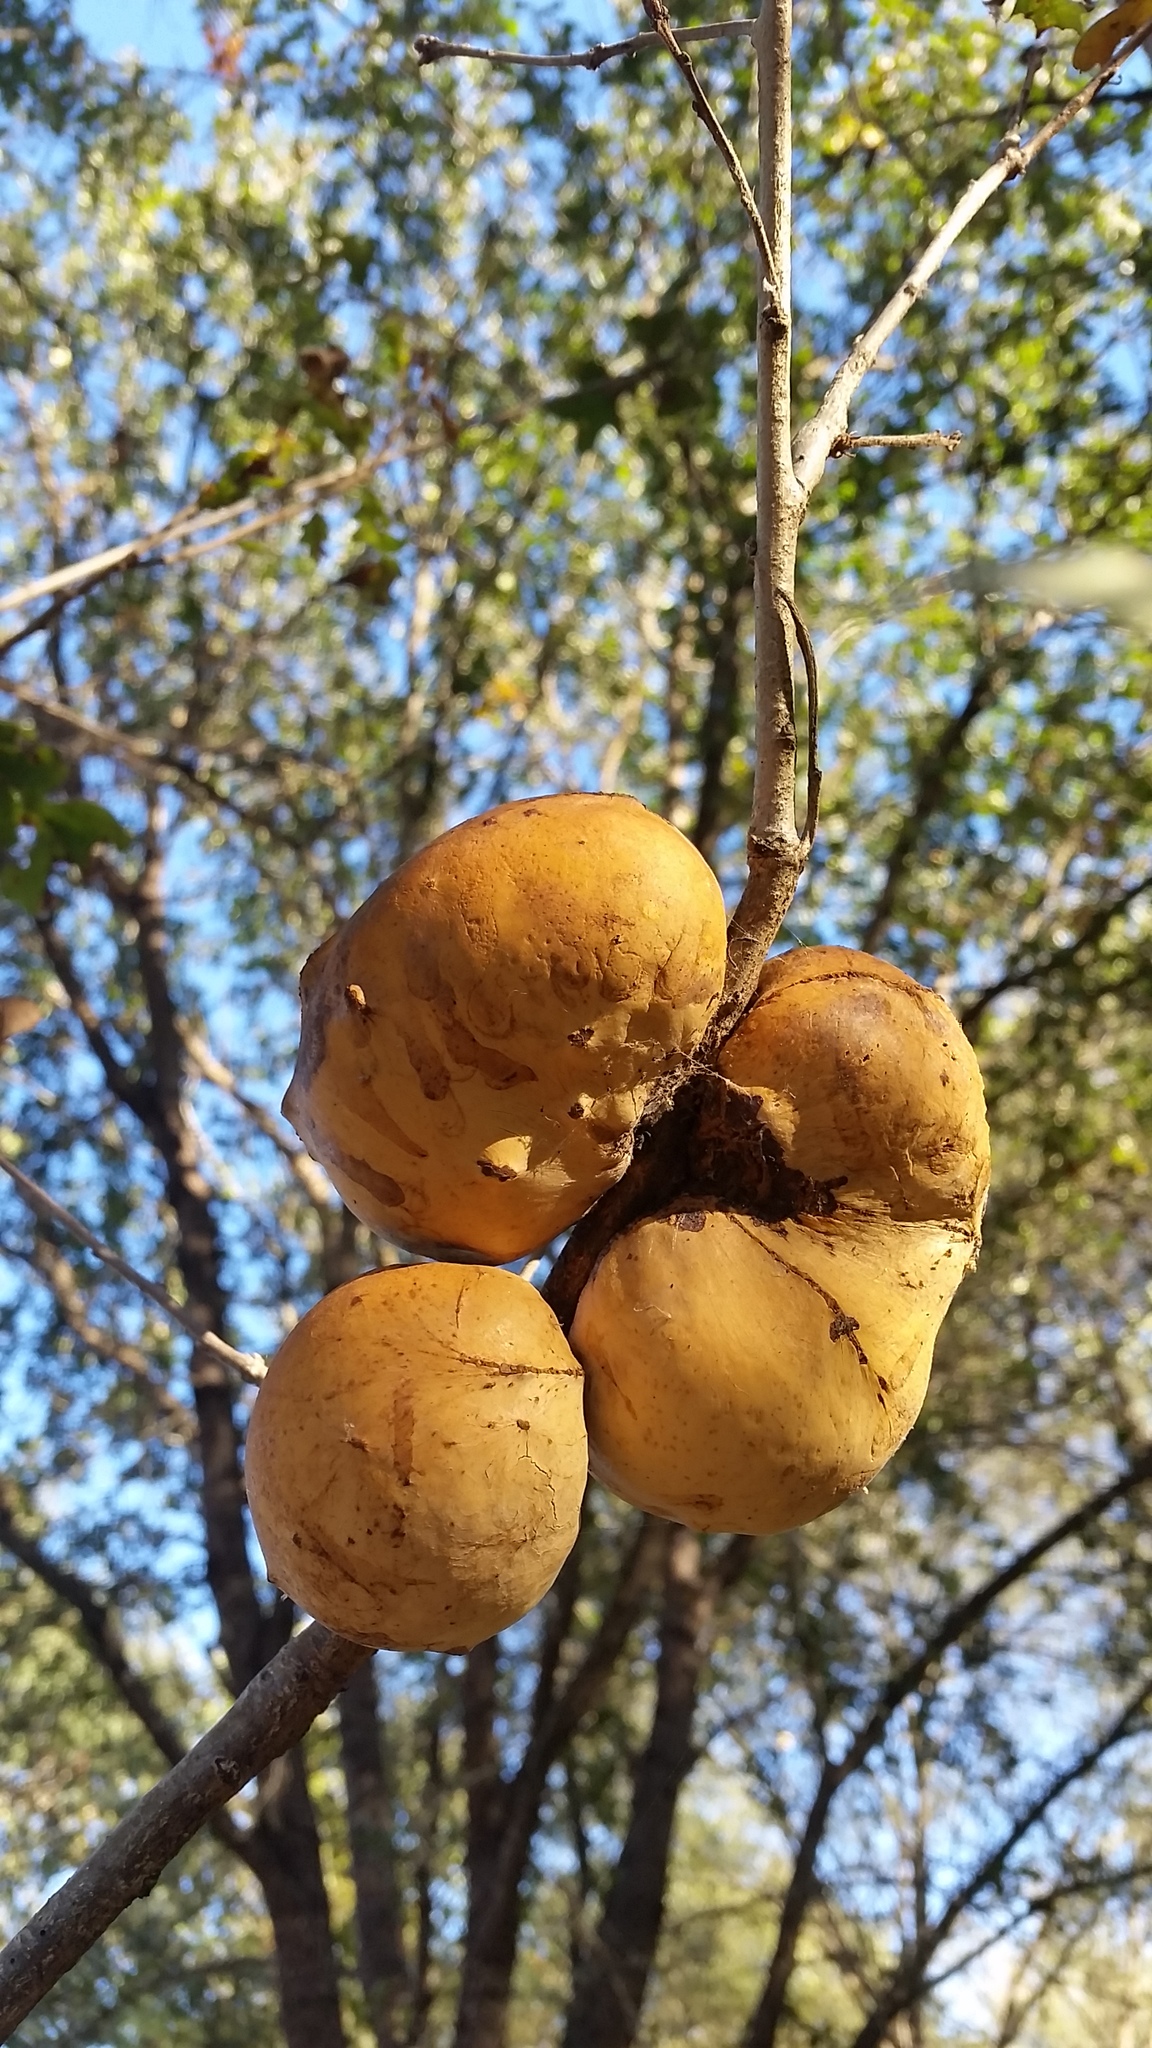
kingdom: Animalia
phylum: Arthropoda
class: Insecta
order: Hymenoptera
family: Cynipidae
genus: Andricus
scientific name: Andricus quercuscalifornicus
